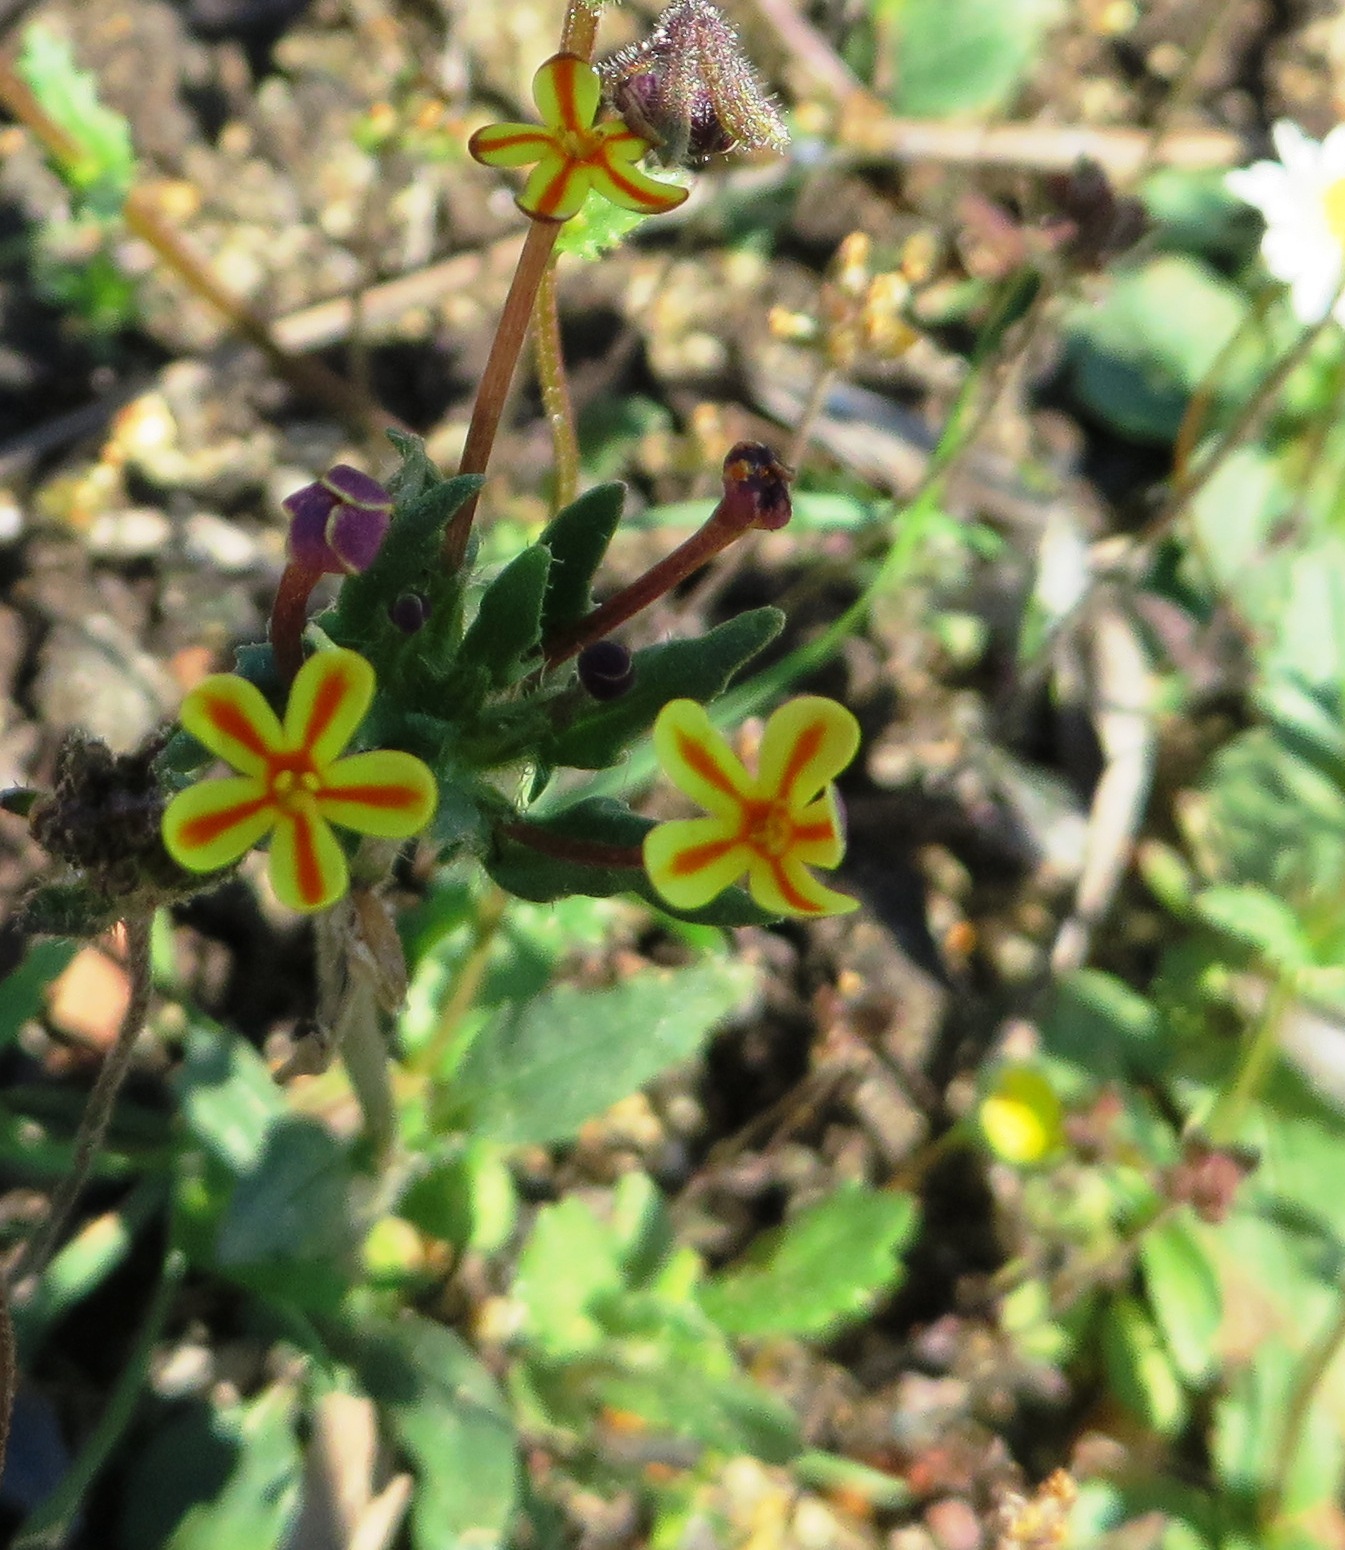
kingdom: Plantae
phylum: Tracheophyta
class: Magnoliopsida
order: Lamiales
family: Scrophulariaceae
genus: Zaluzianskya
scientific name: Zaluzianskya divaricata
